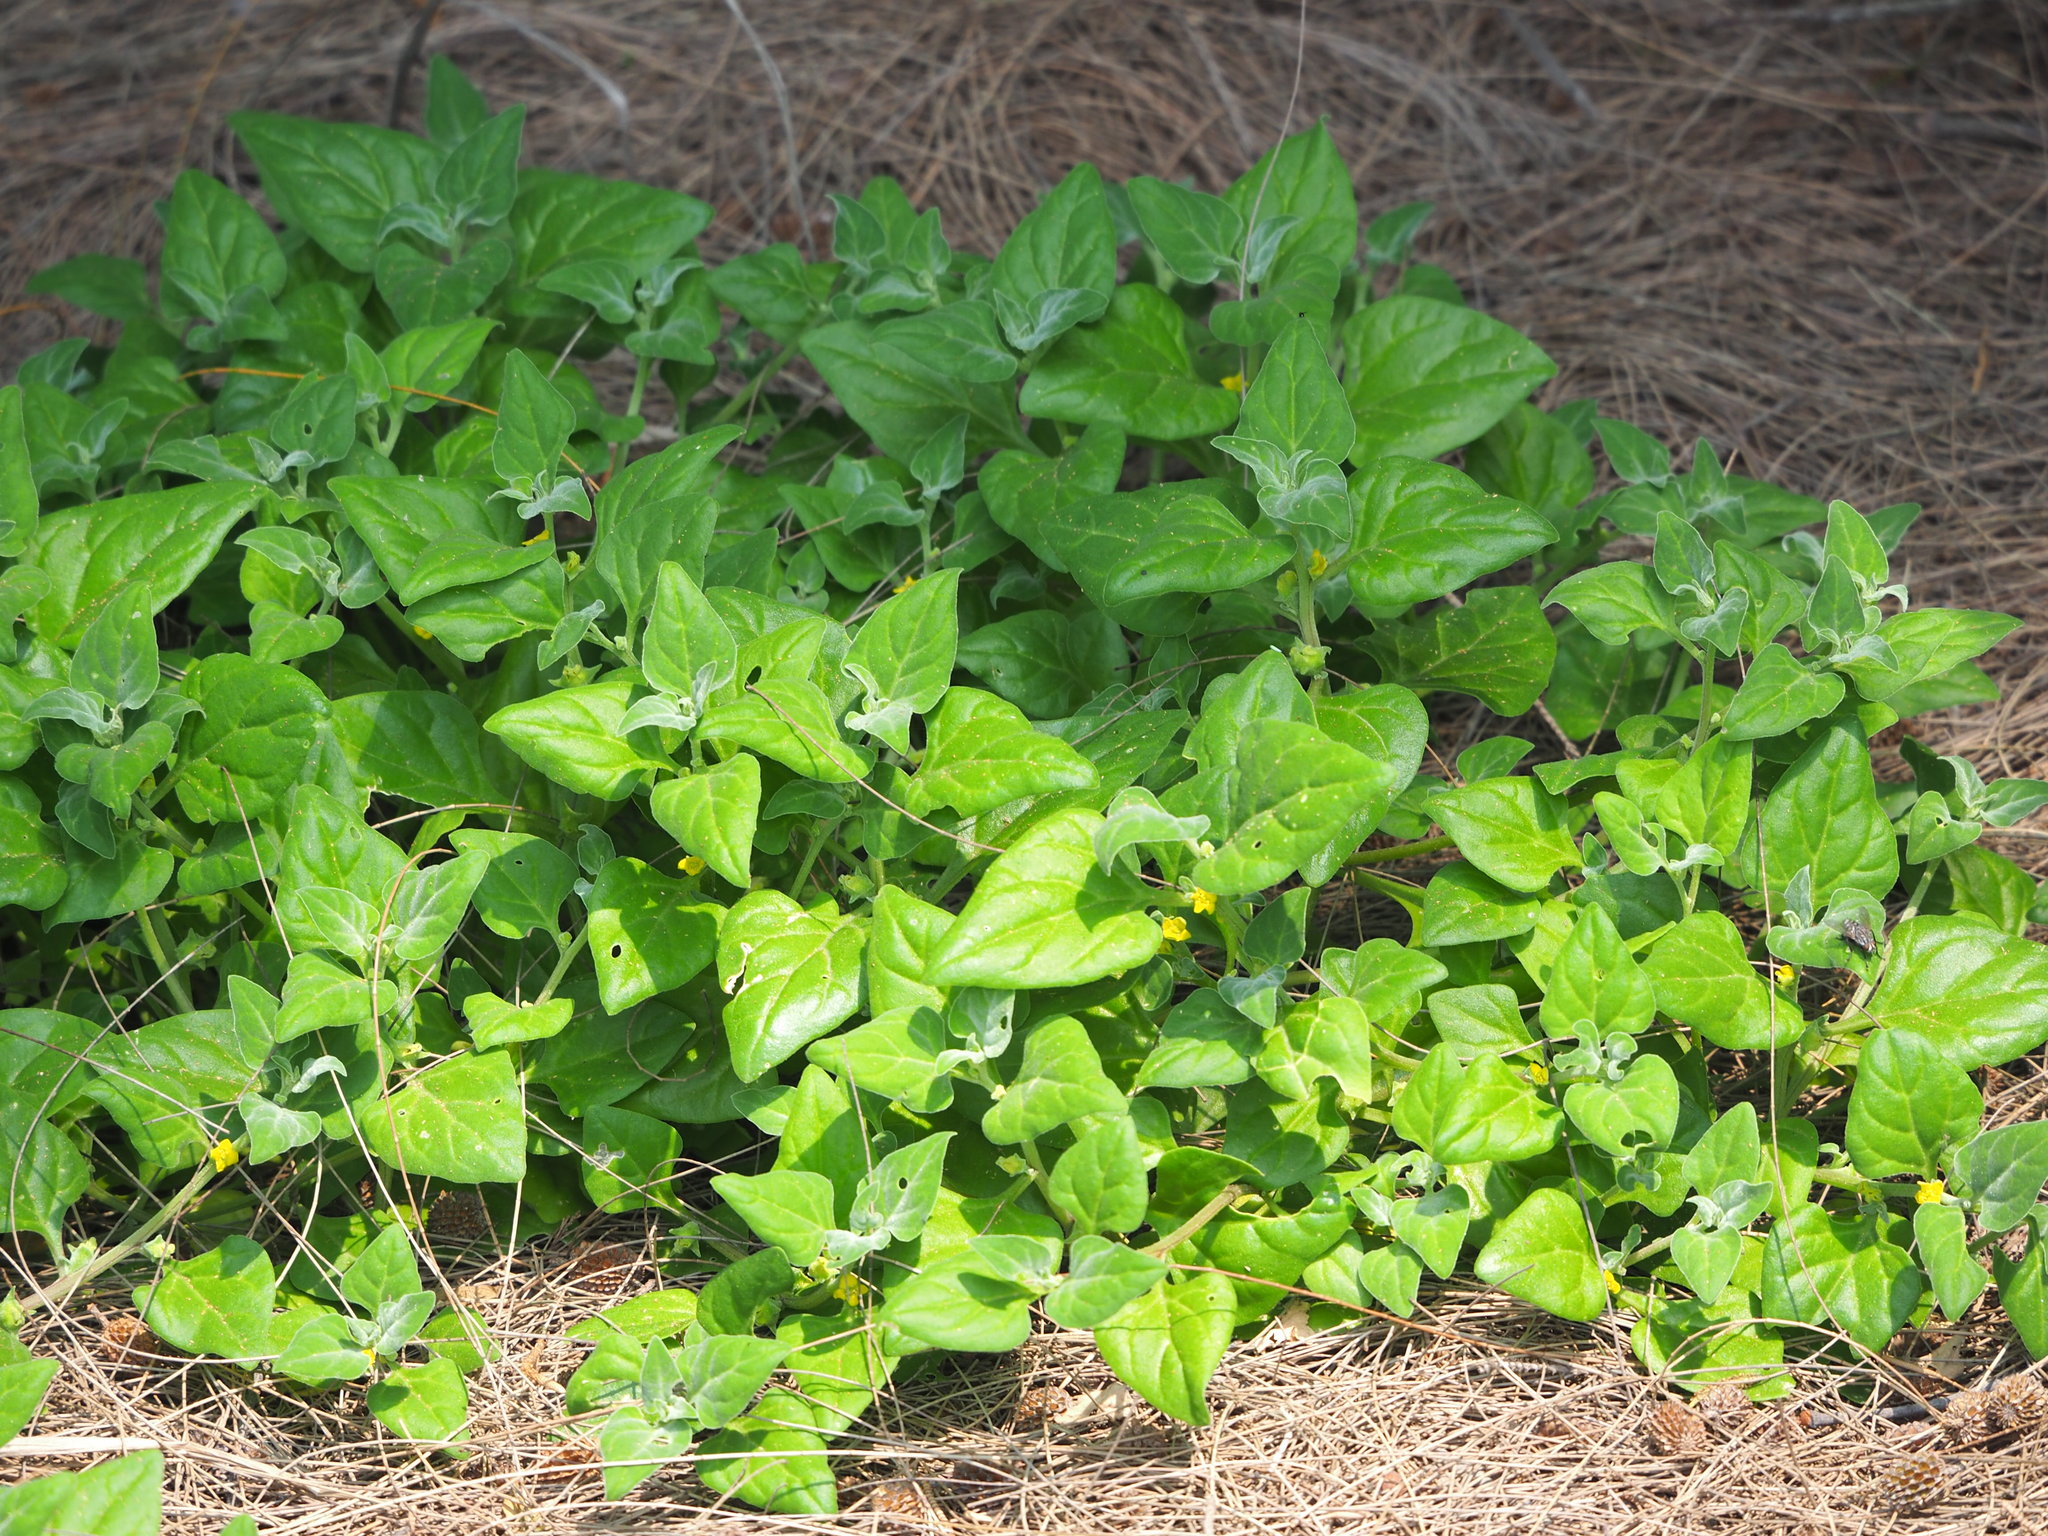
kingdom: Plantae
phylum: Tracheophyta
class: Magnoliopsida
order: Caryophyllales
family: Aizoaceae
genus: Tetragonia
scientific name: Tetragonia tetragonoides
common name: New zealand-spinach
